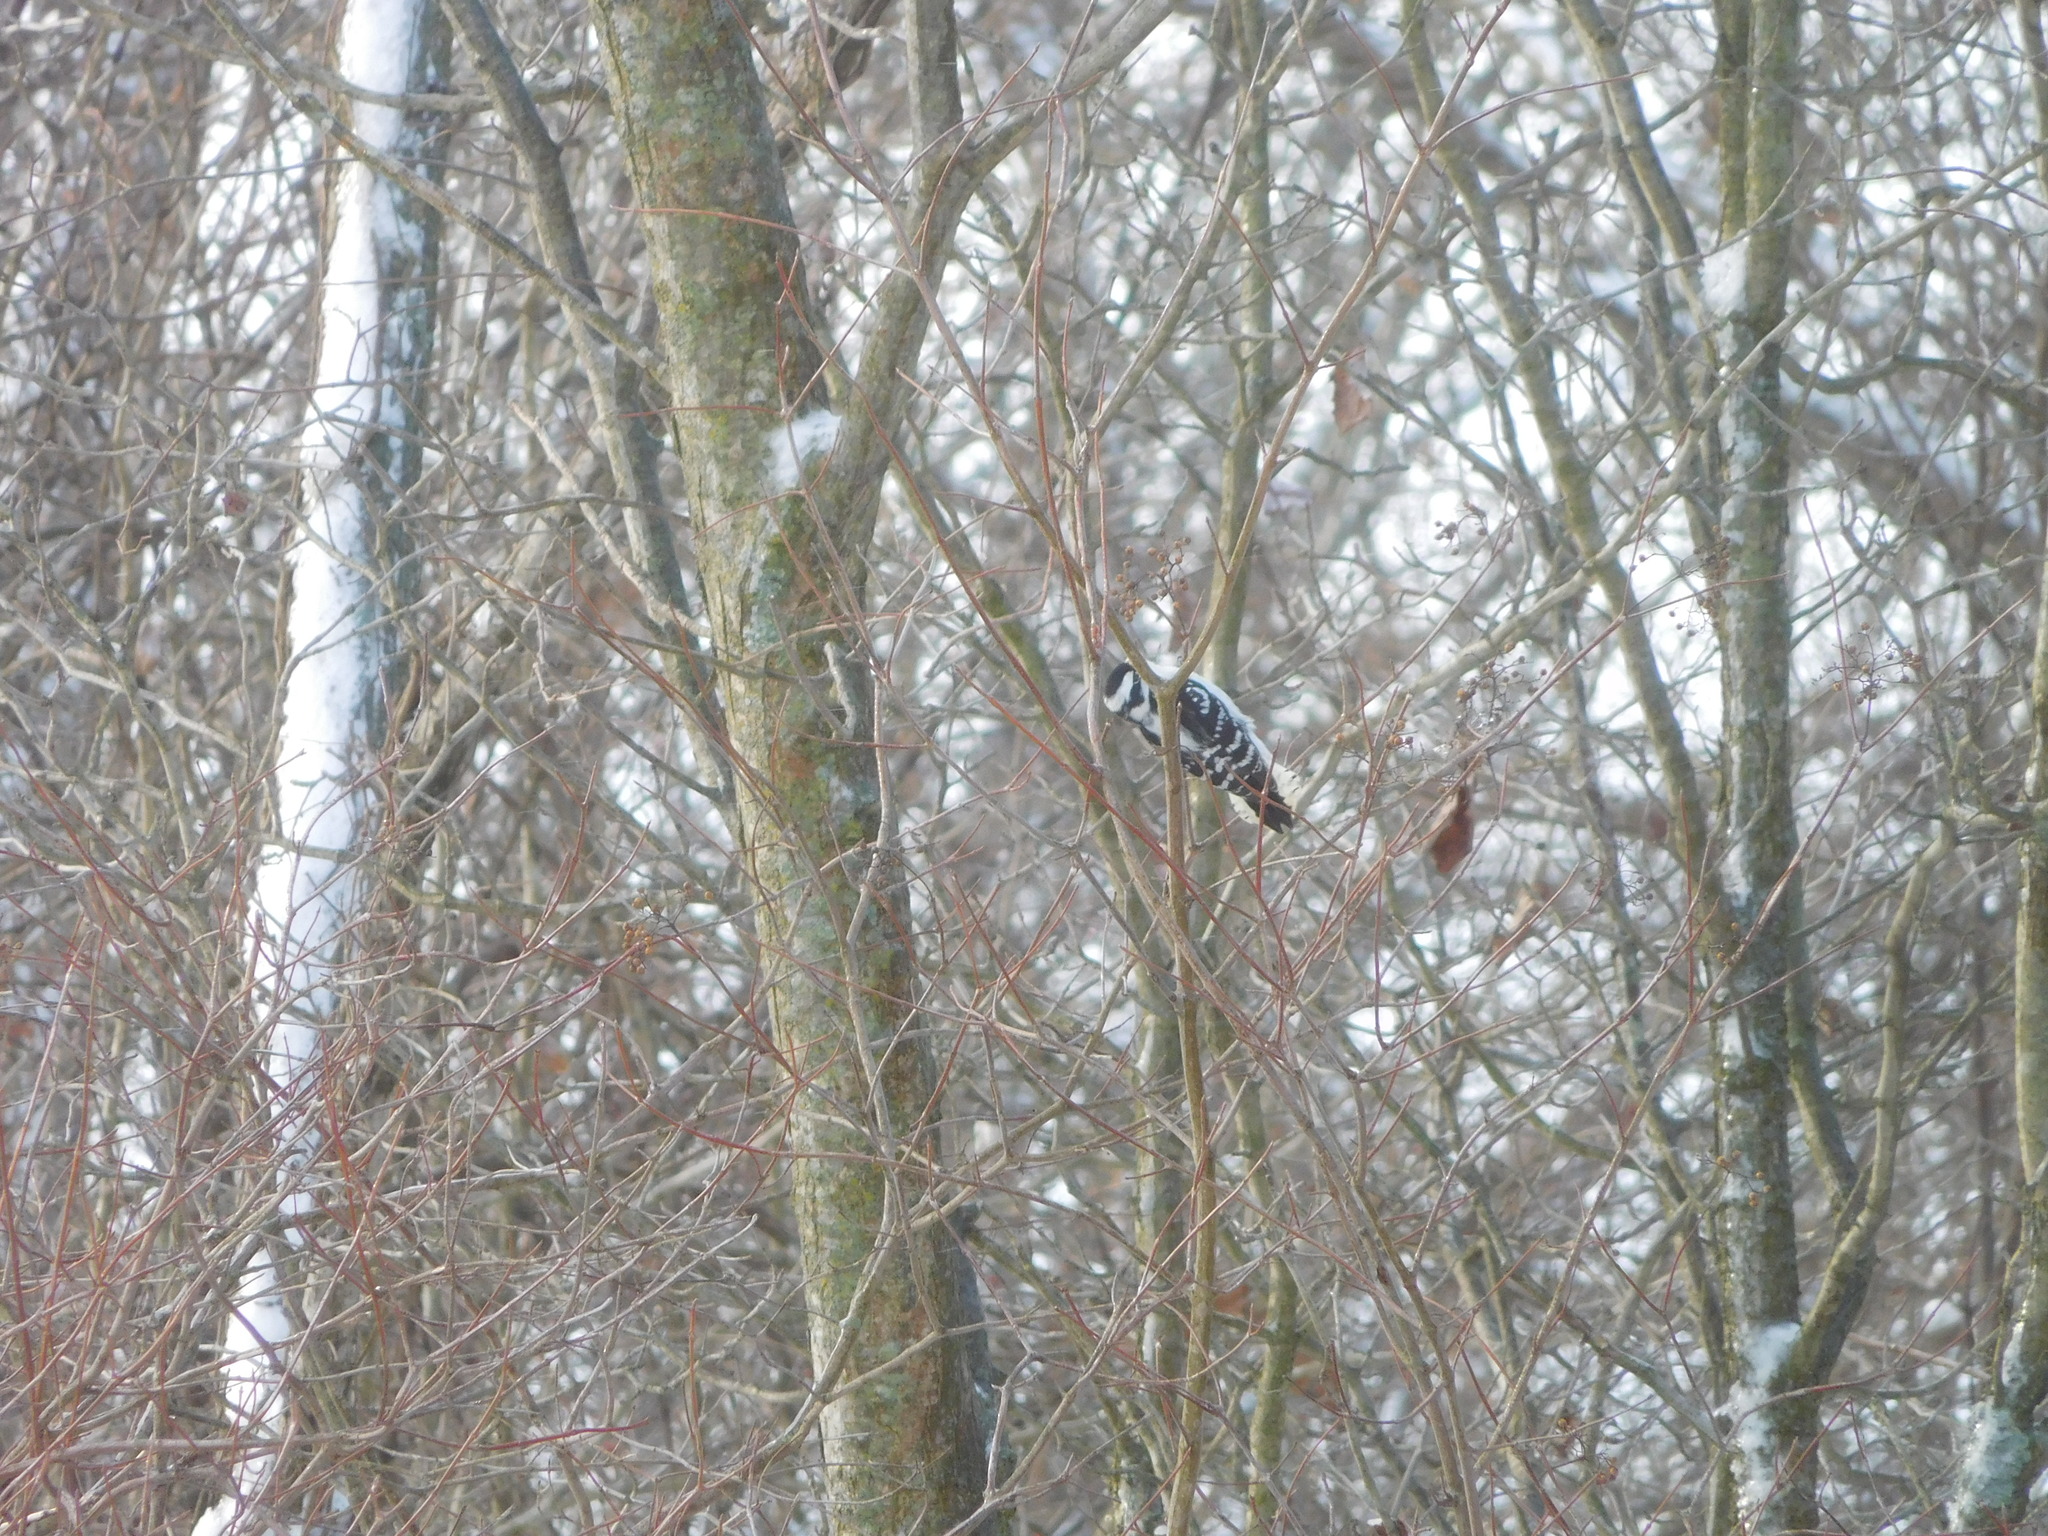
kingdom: Animalia
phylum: Chordata
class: Aves
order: Piciformes
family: Picidae
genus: Dryobates
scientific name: Dryobates pubescens
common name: Downy woodpecker
